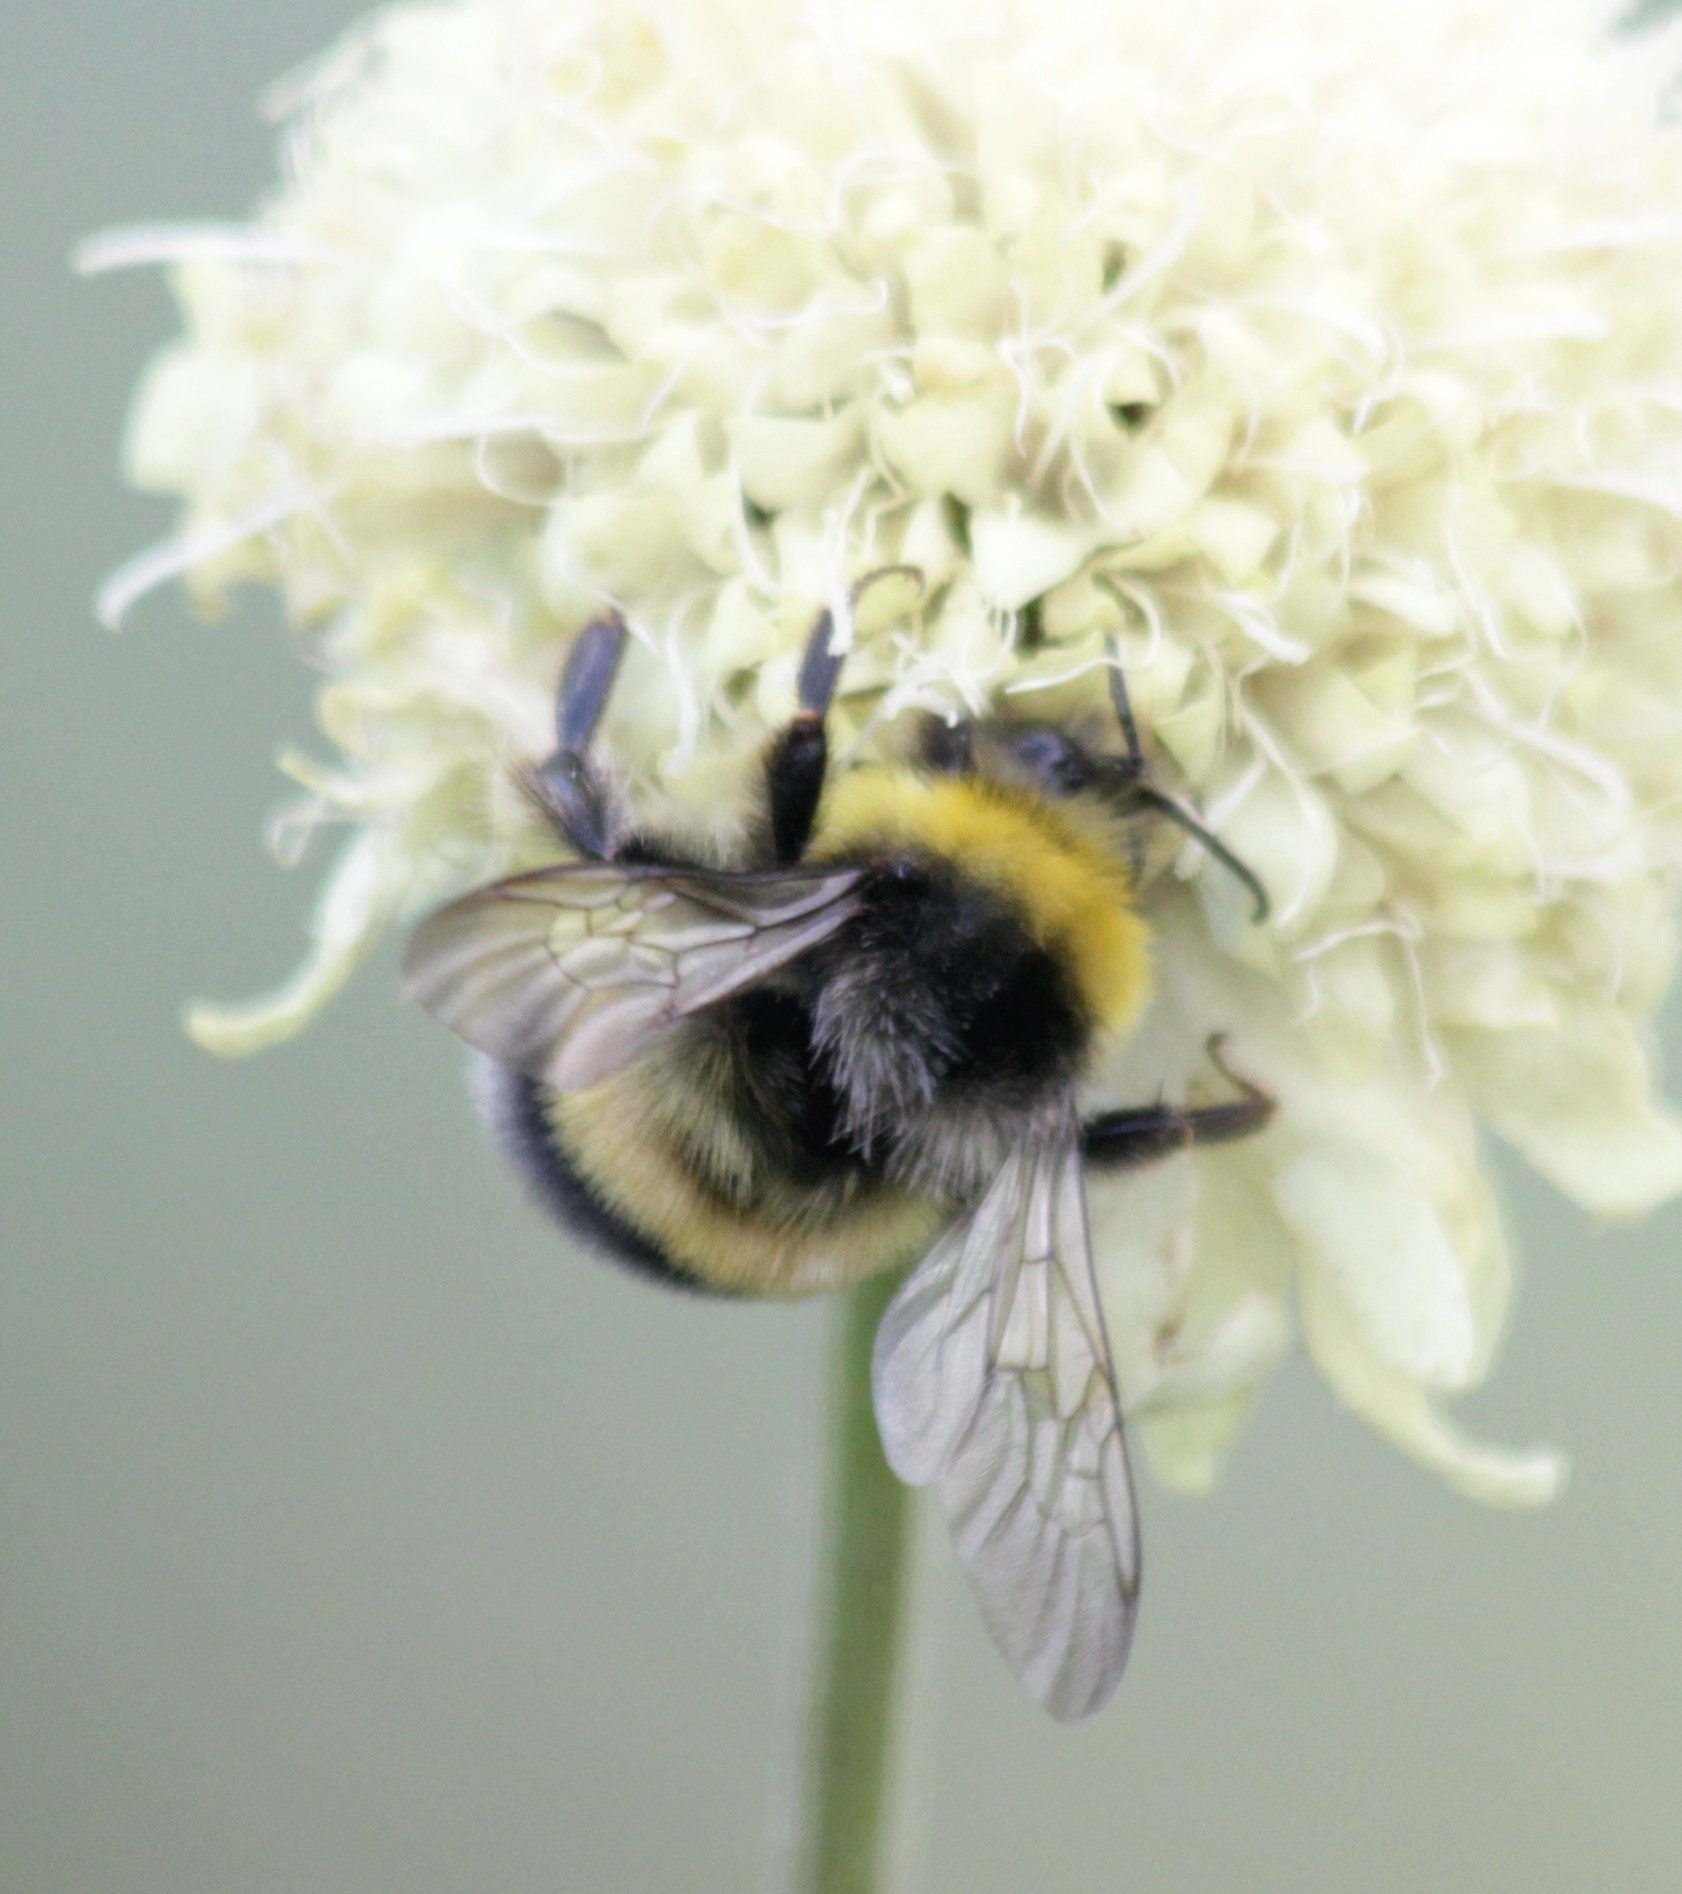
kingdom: Animalia
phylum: Arthropoda
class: Insecta
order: Hymenoptera
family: Apidae
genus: Bombus
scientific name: Bombus lucorum
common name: White-tailed bumblebee
